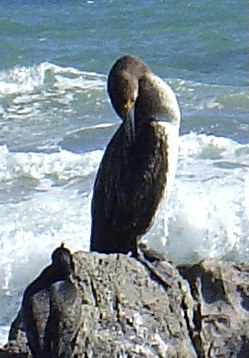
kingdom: Animalia
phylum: Chordata
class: Aves
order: Suliformes
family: Phalacrocoracidae
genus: Phalacrocorax
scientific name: Phalacrocorax carbo
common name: Great cormorant
